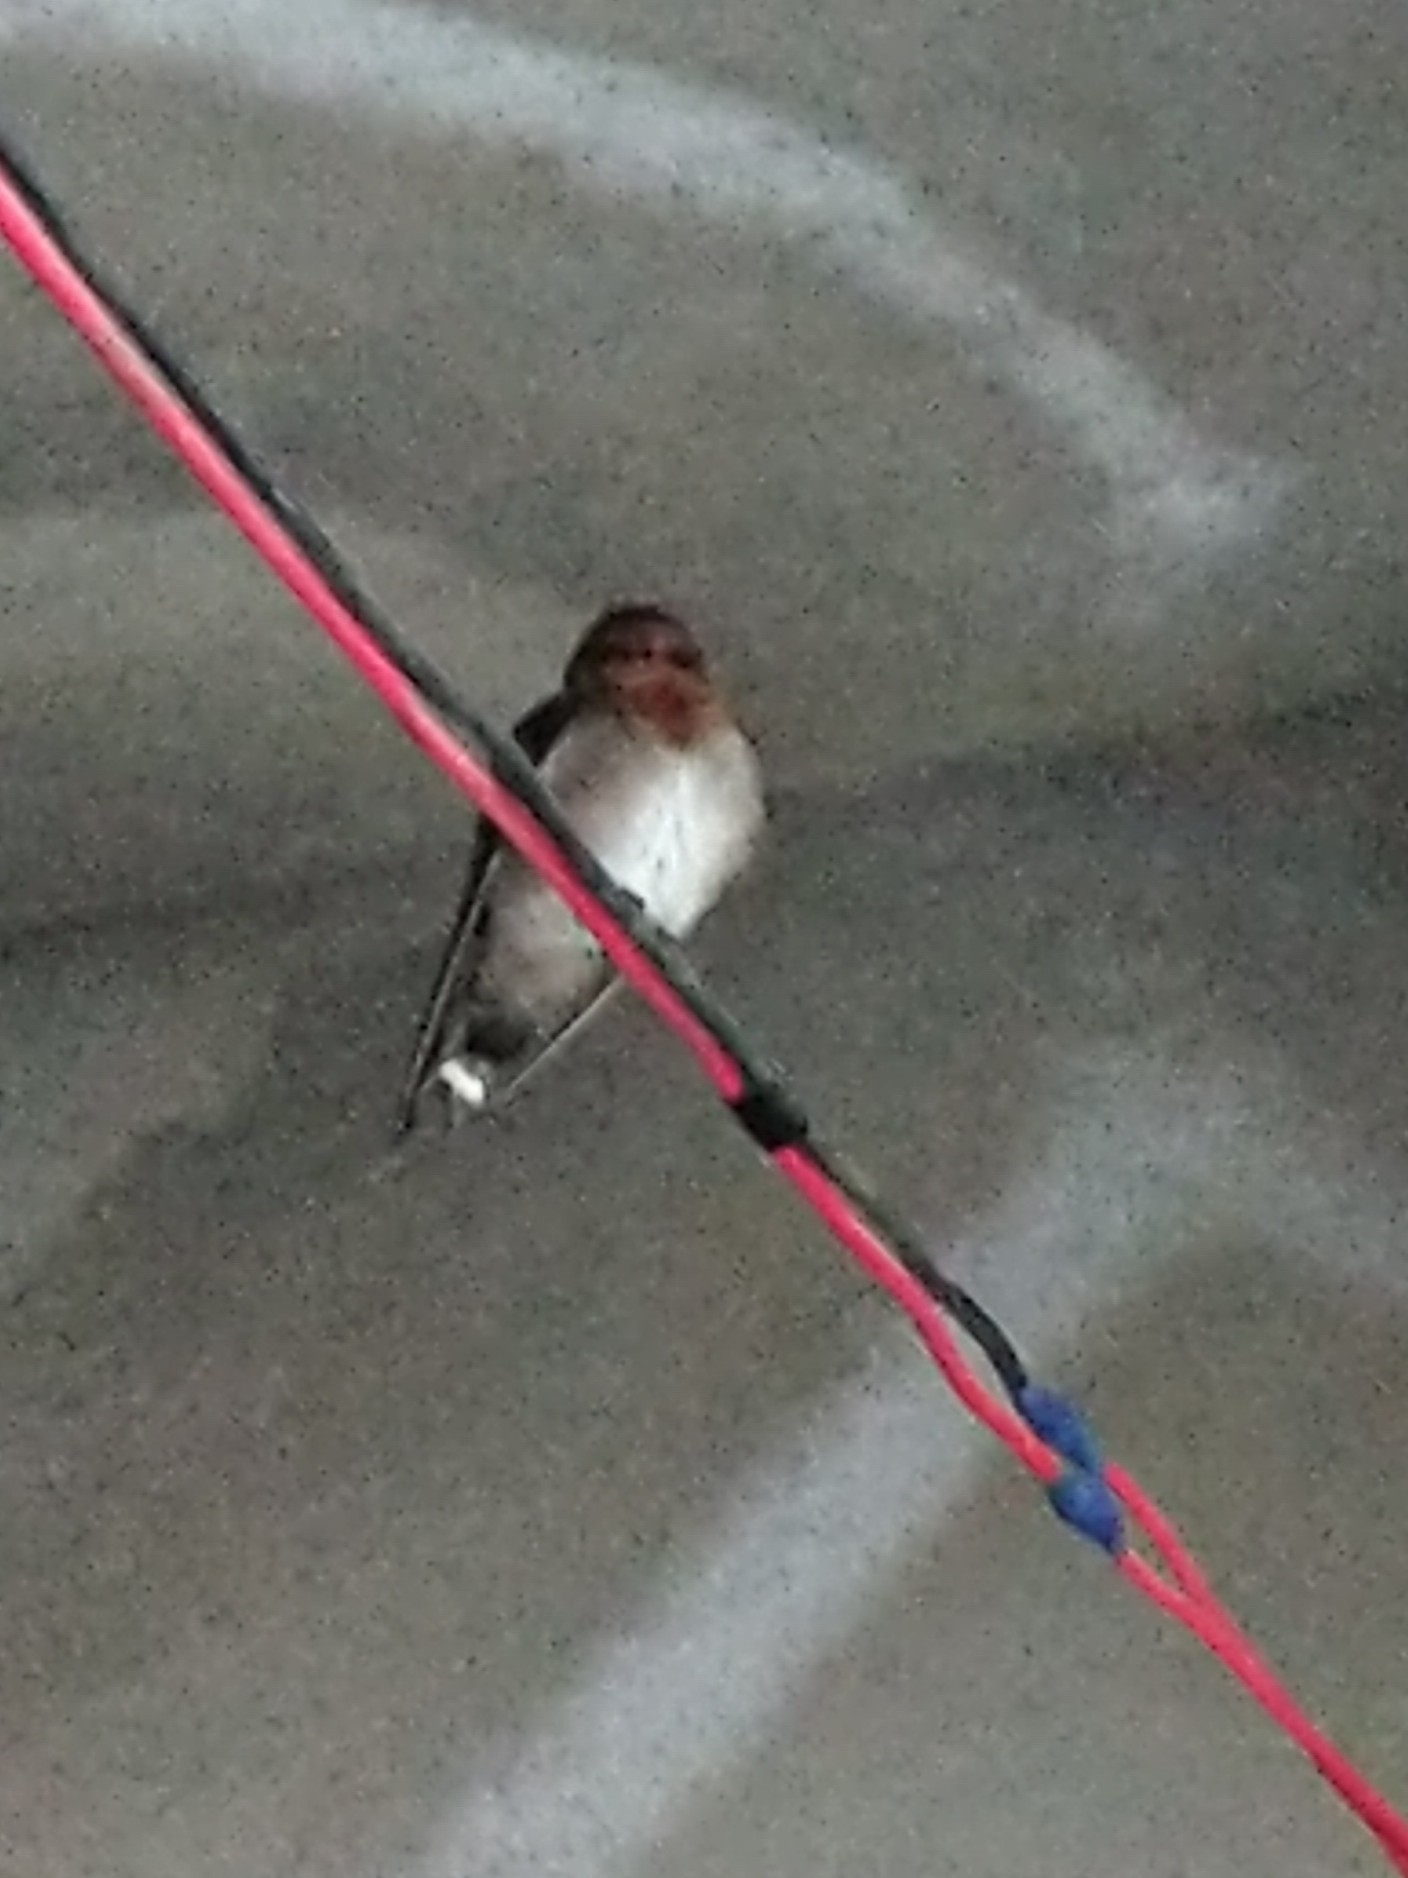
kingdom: Animalia
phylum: Chordata
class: Aves
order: Passeriformes
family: Hirundinidae
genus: Hirundo
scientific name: Hirundo domicola
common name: Hill swallow
